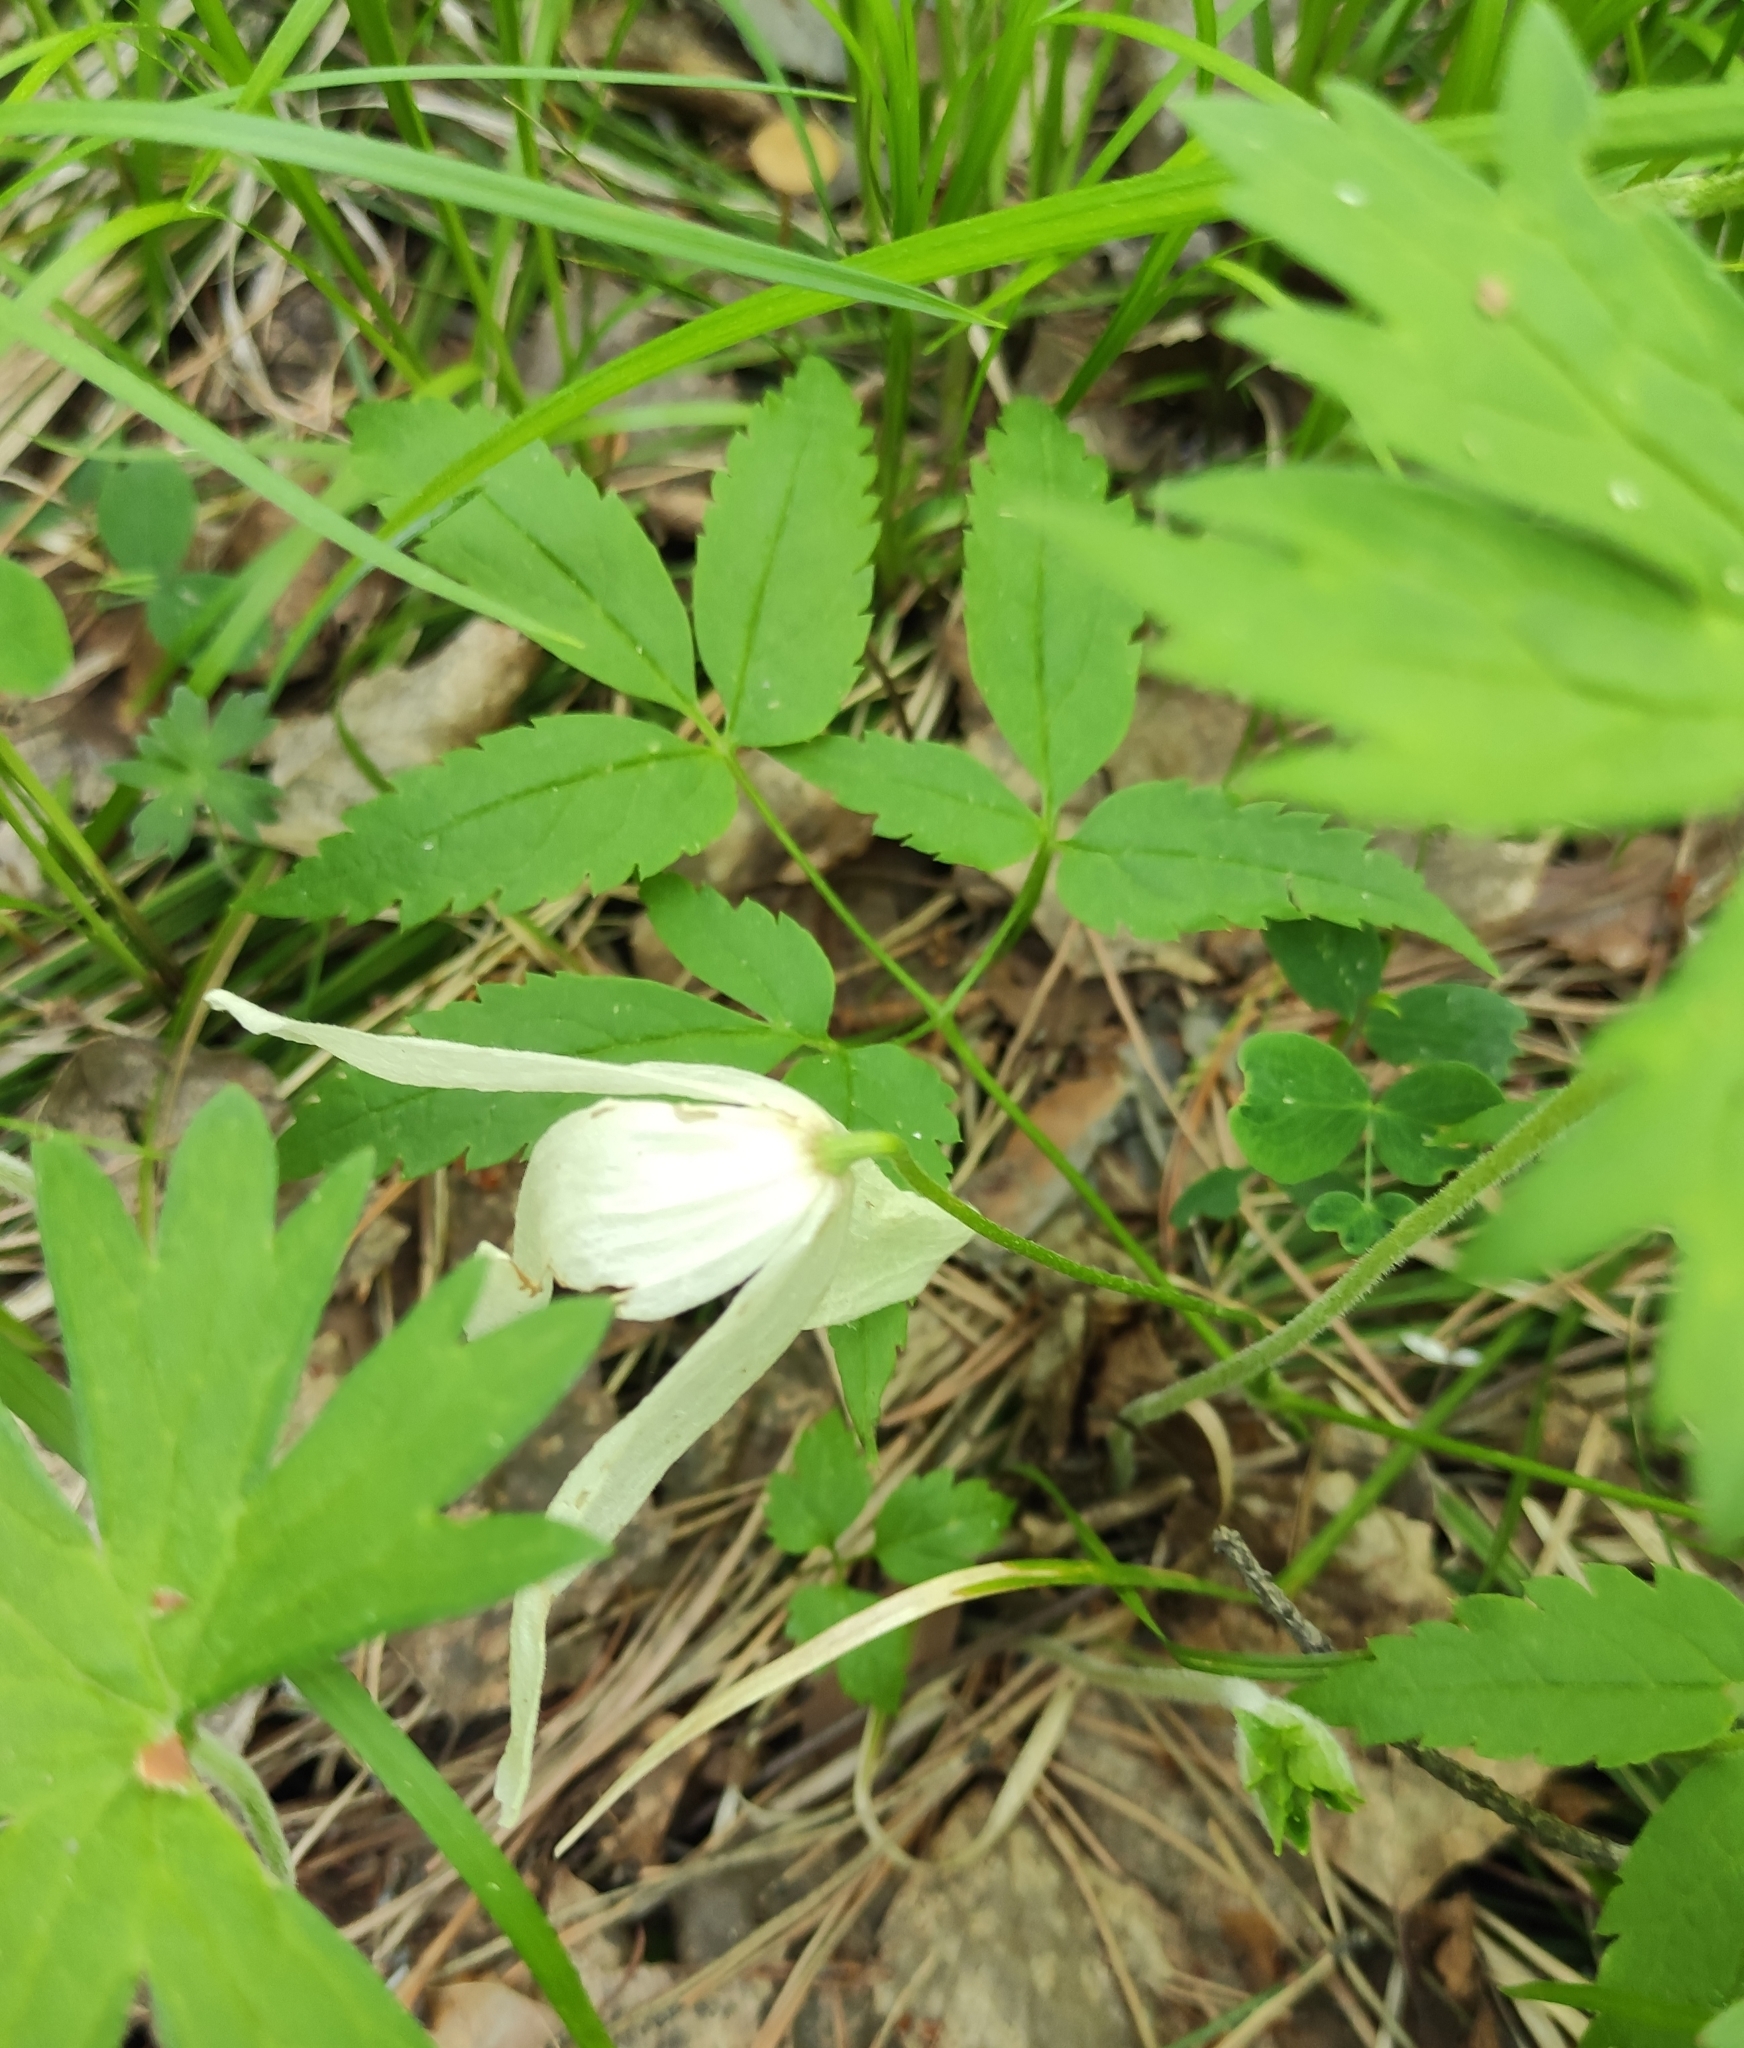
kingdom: Plantae
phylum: Tracheophyta
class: Magnoliopsida
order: Ranunculales
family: Ranunculaceae
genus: Clematis
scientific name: Clematis sibirica
